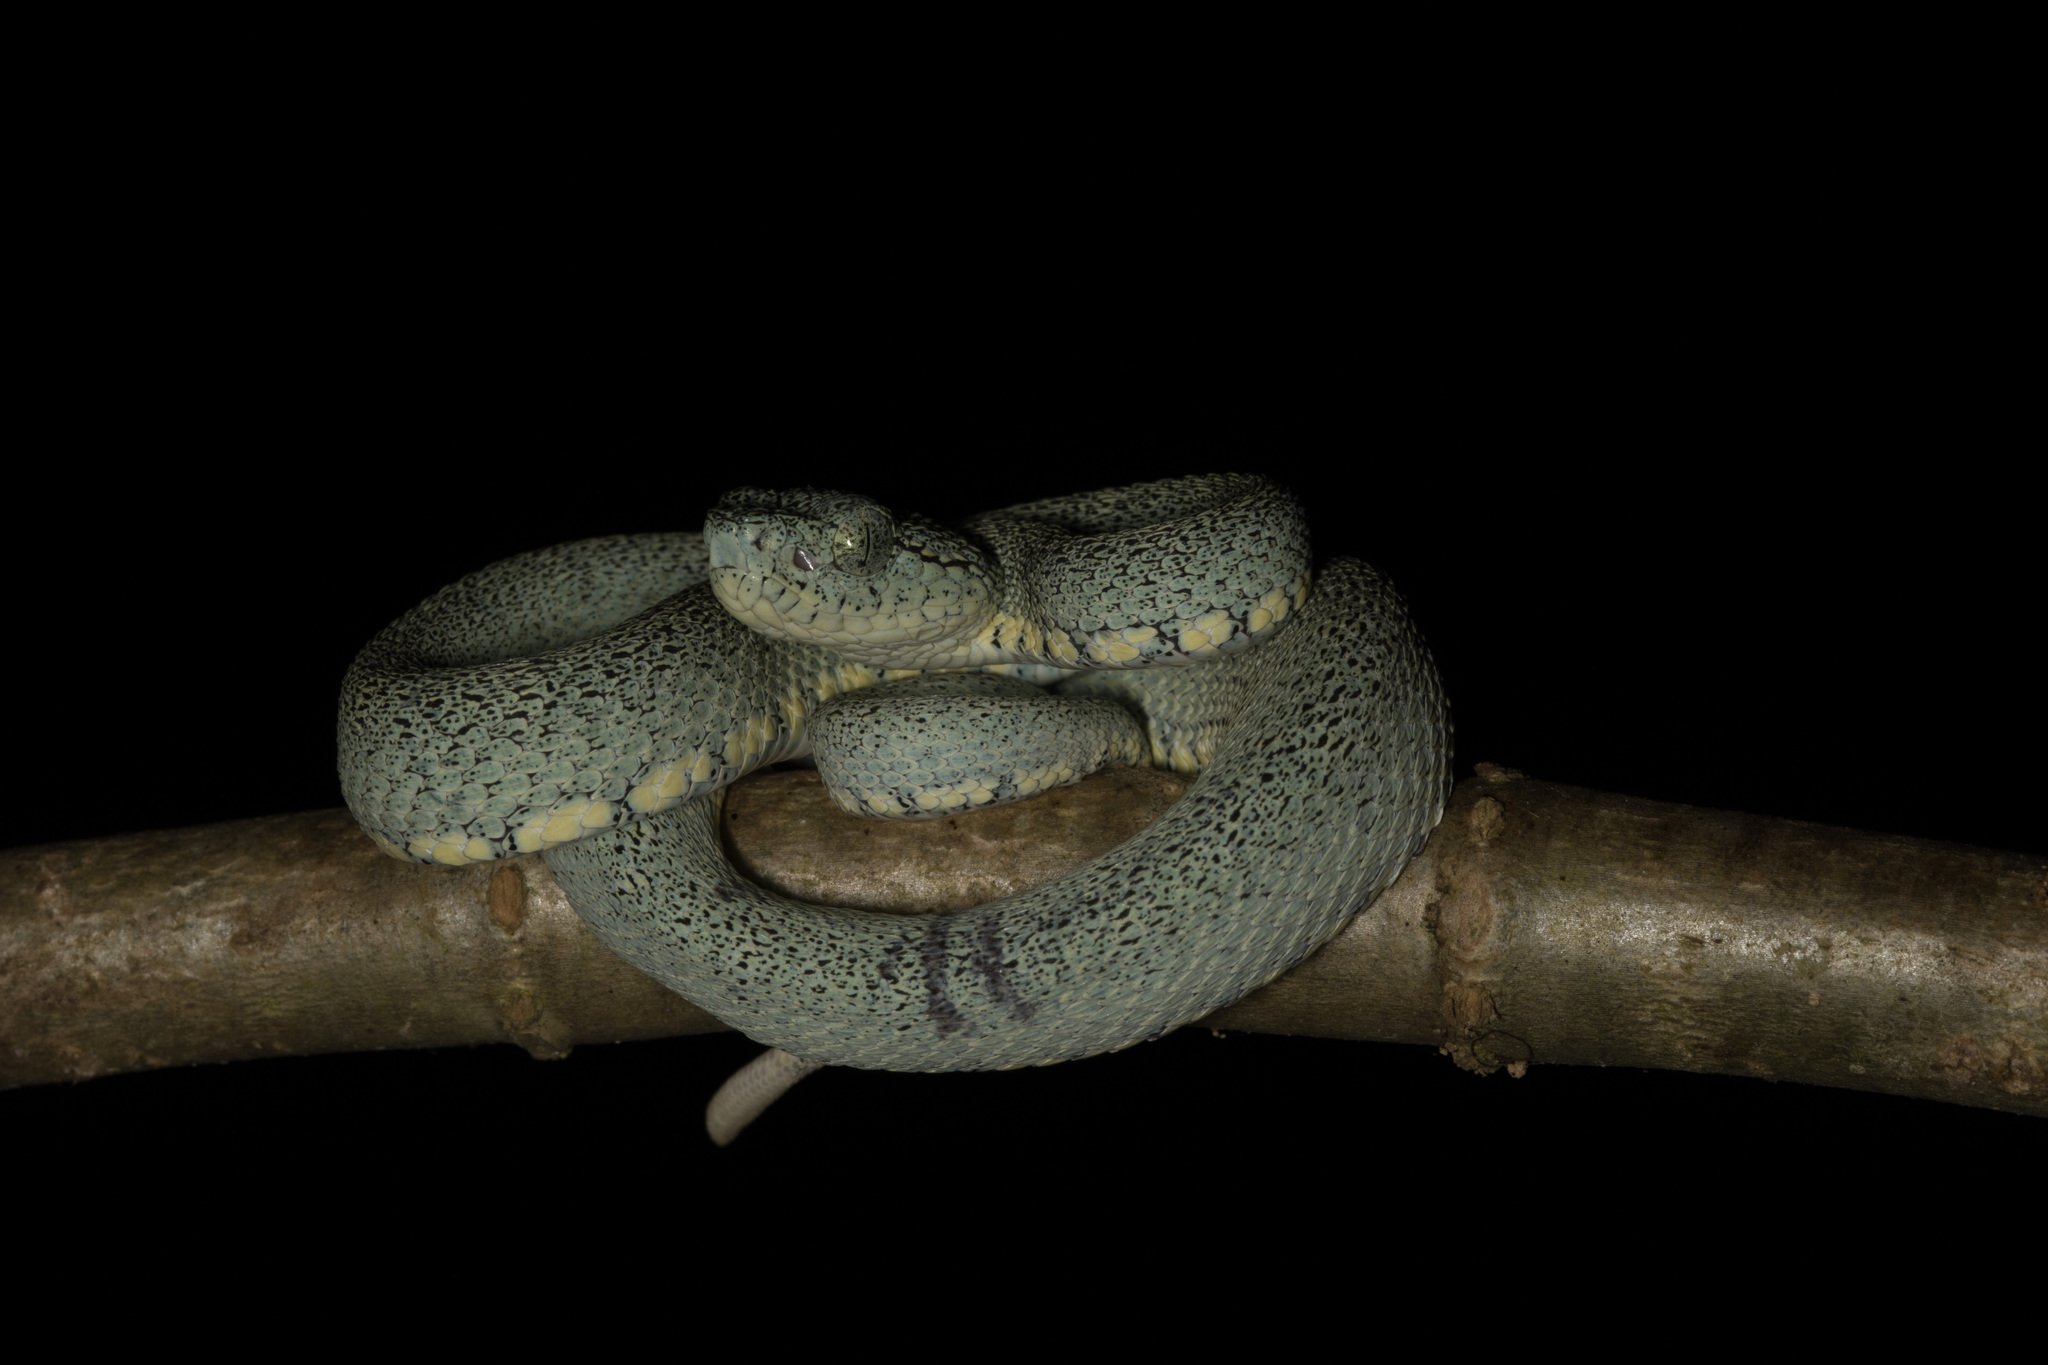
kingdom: Animalia
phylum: Chordata
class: Squamata
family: Viperidae
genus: Bothrops
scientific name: Bothrops bilineatus
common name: Green jararaca
